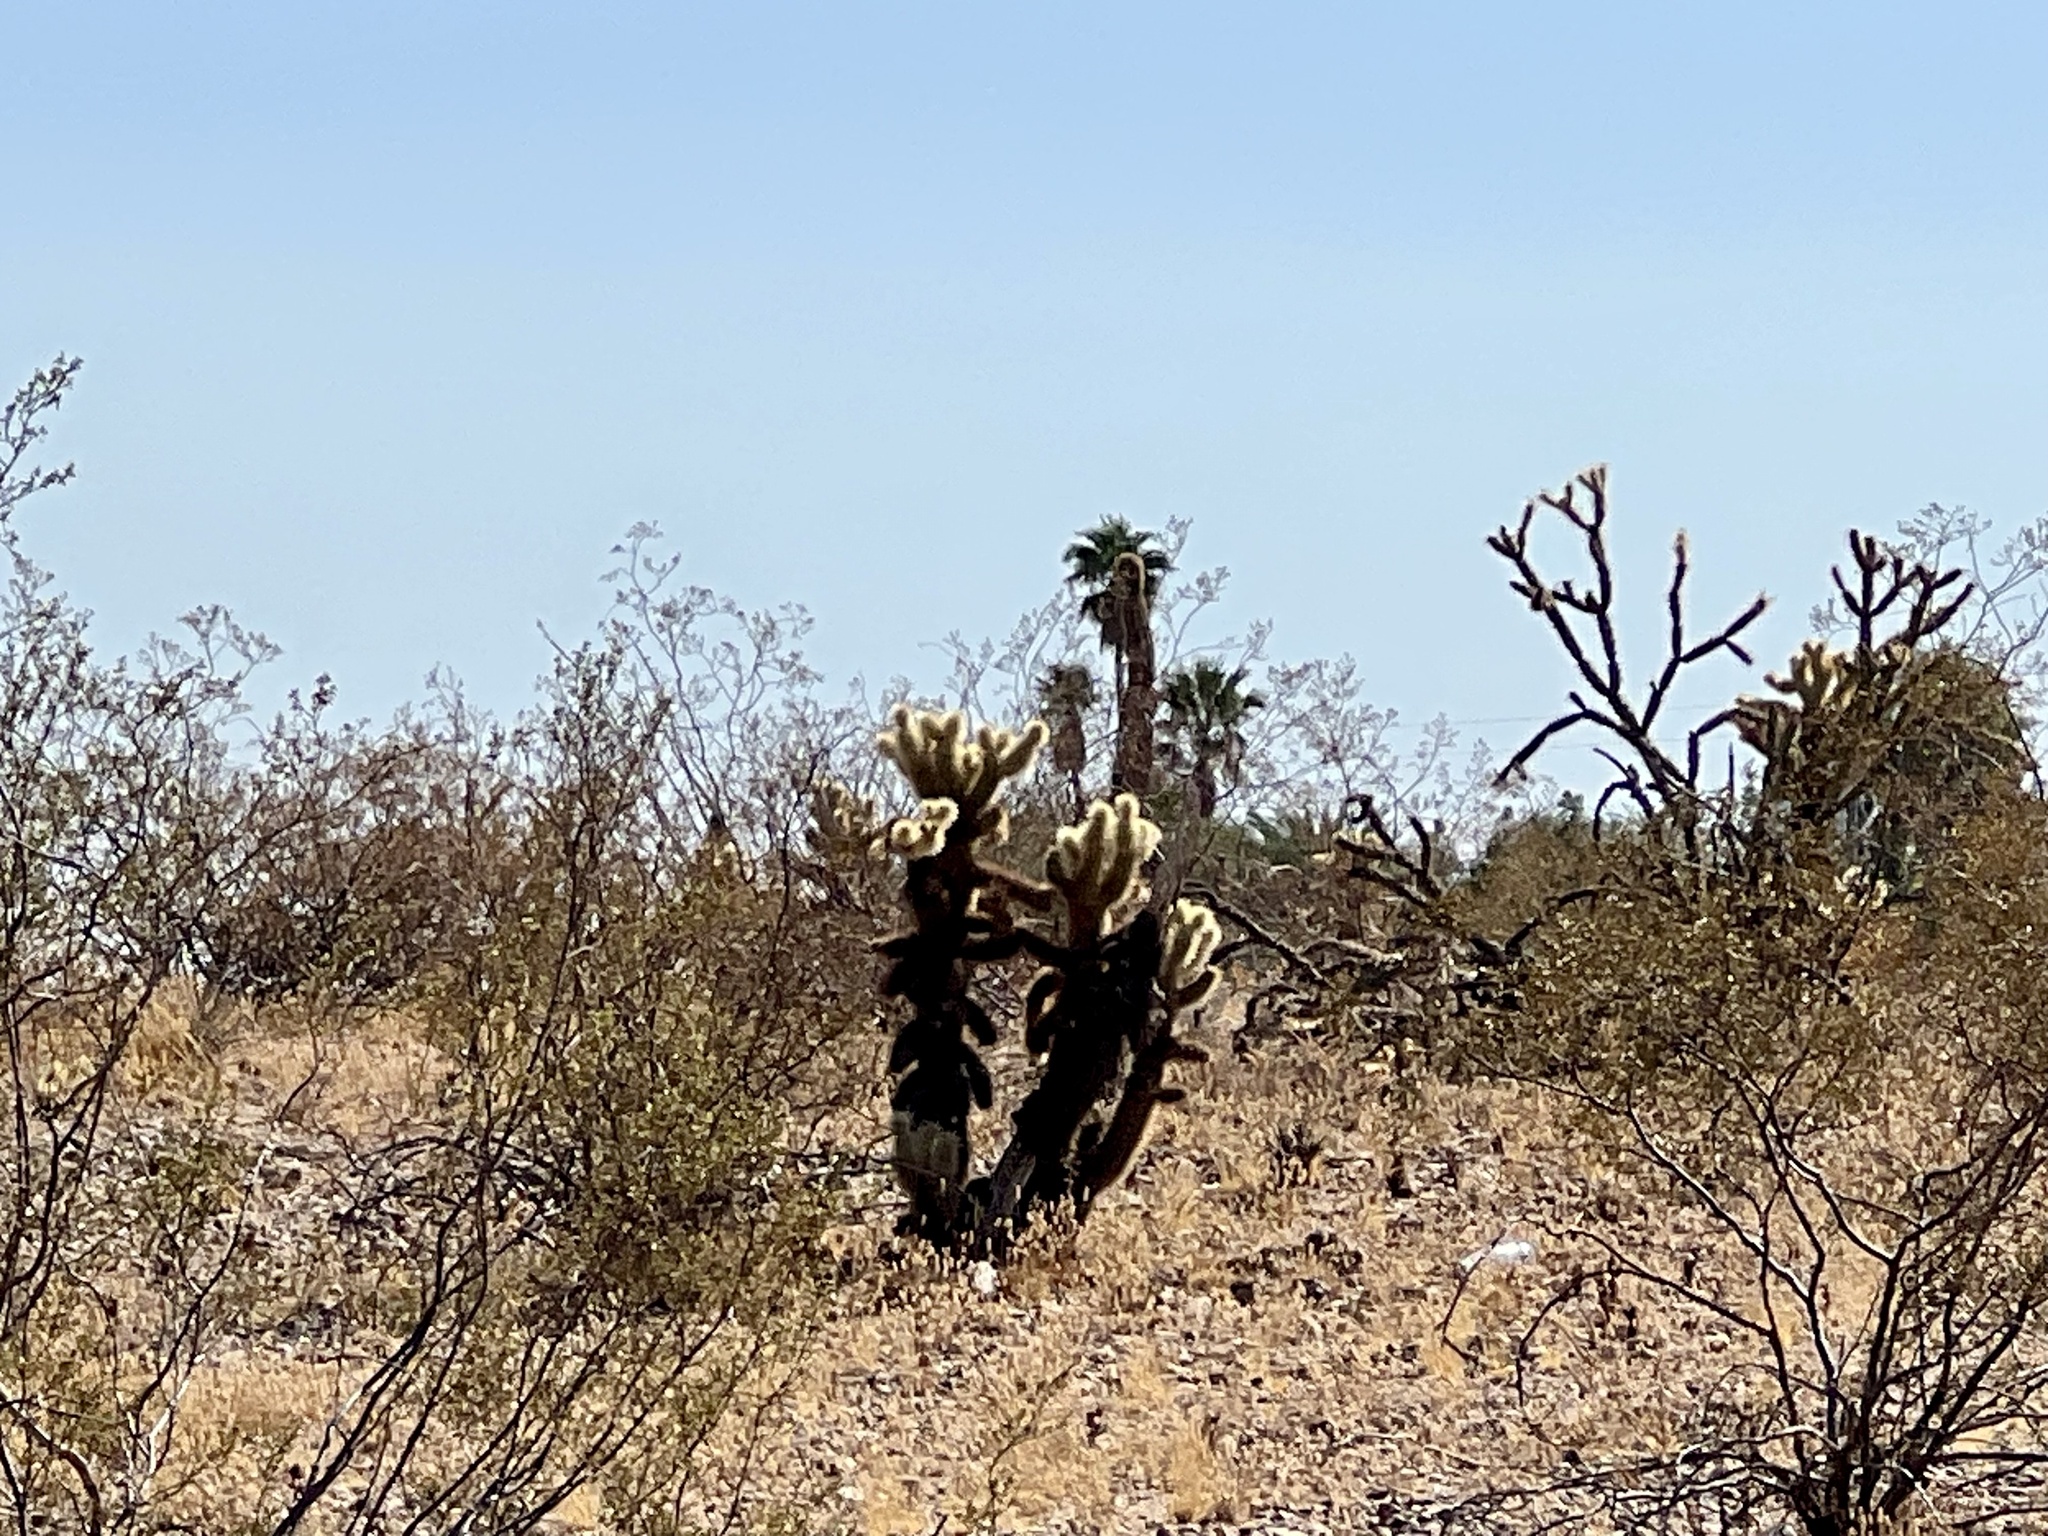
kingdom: Plantae
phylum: Tracheophyta
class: Magnoliopsida
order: Caryophyllales
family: Cactaceae
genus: Cylindropuntia
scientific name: Cylindropuntia fosbergii
